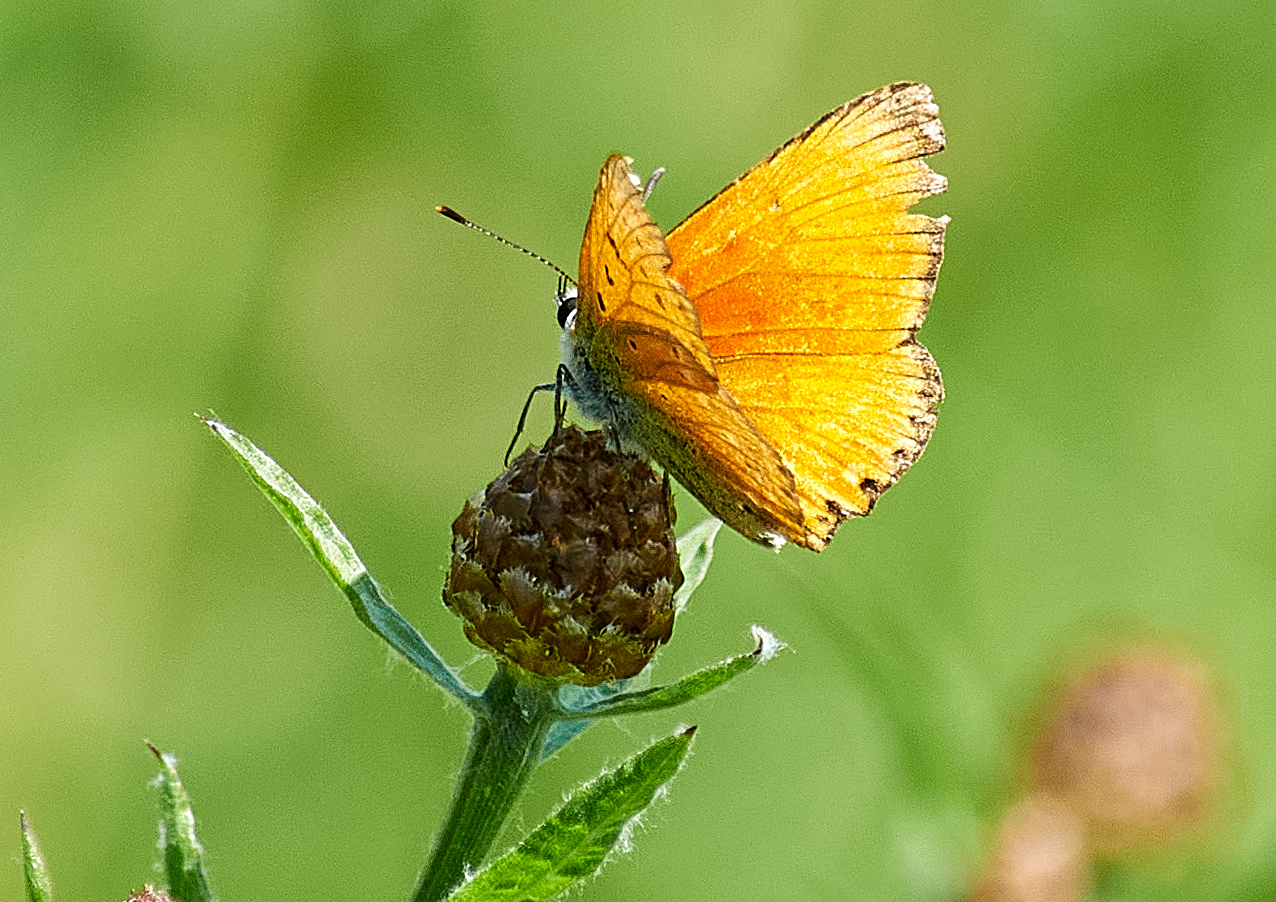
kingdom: Animalia
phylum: Arthropoda
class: Insecta
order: Lepidoptera
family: Lycaenidae
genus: Lycaena
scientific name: Lycaena virgaureae
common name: Scarce copper
